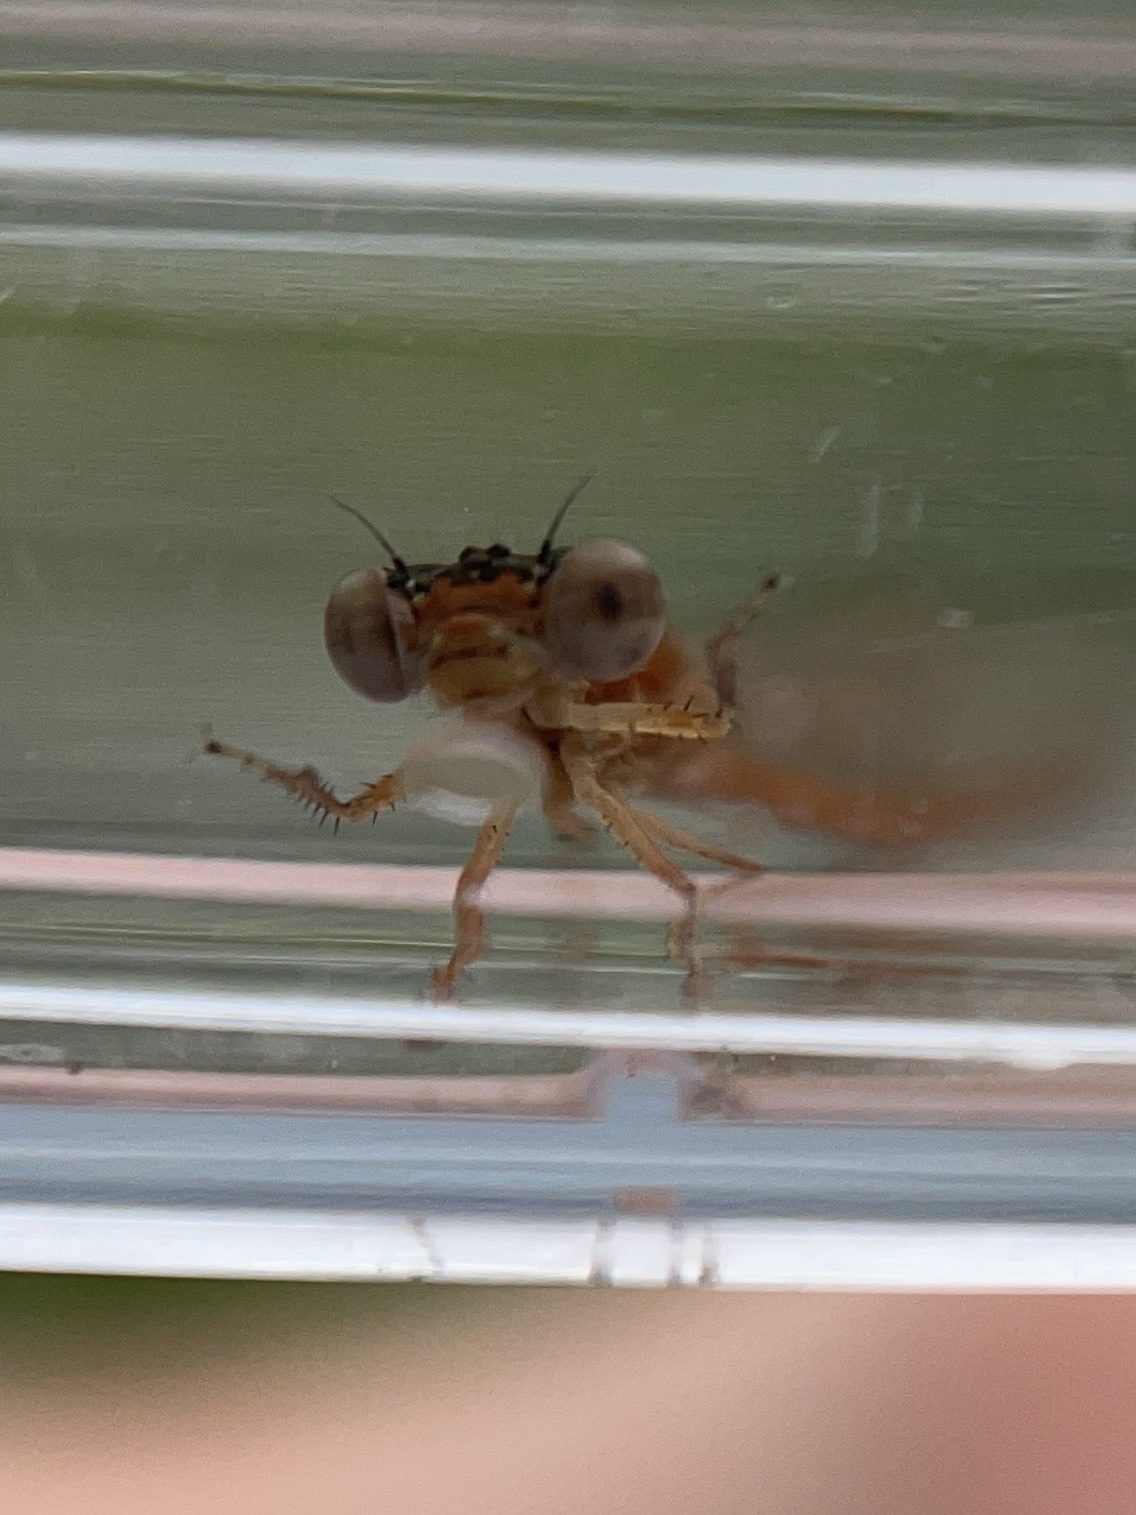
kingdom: Animalia
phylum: Arthropoda
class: Insecta
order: Odonata
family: Coenagrionidae
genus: Ischnura
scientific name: Ischnura hastata
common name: Citrine forktail
